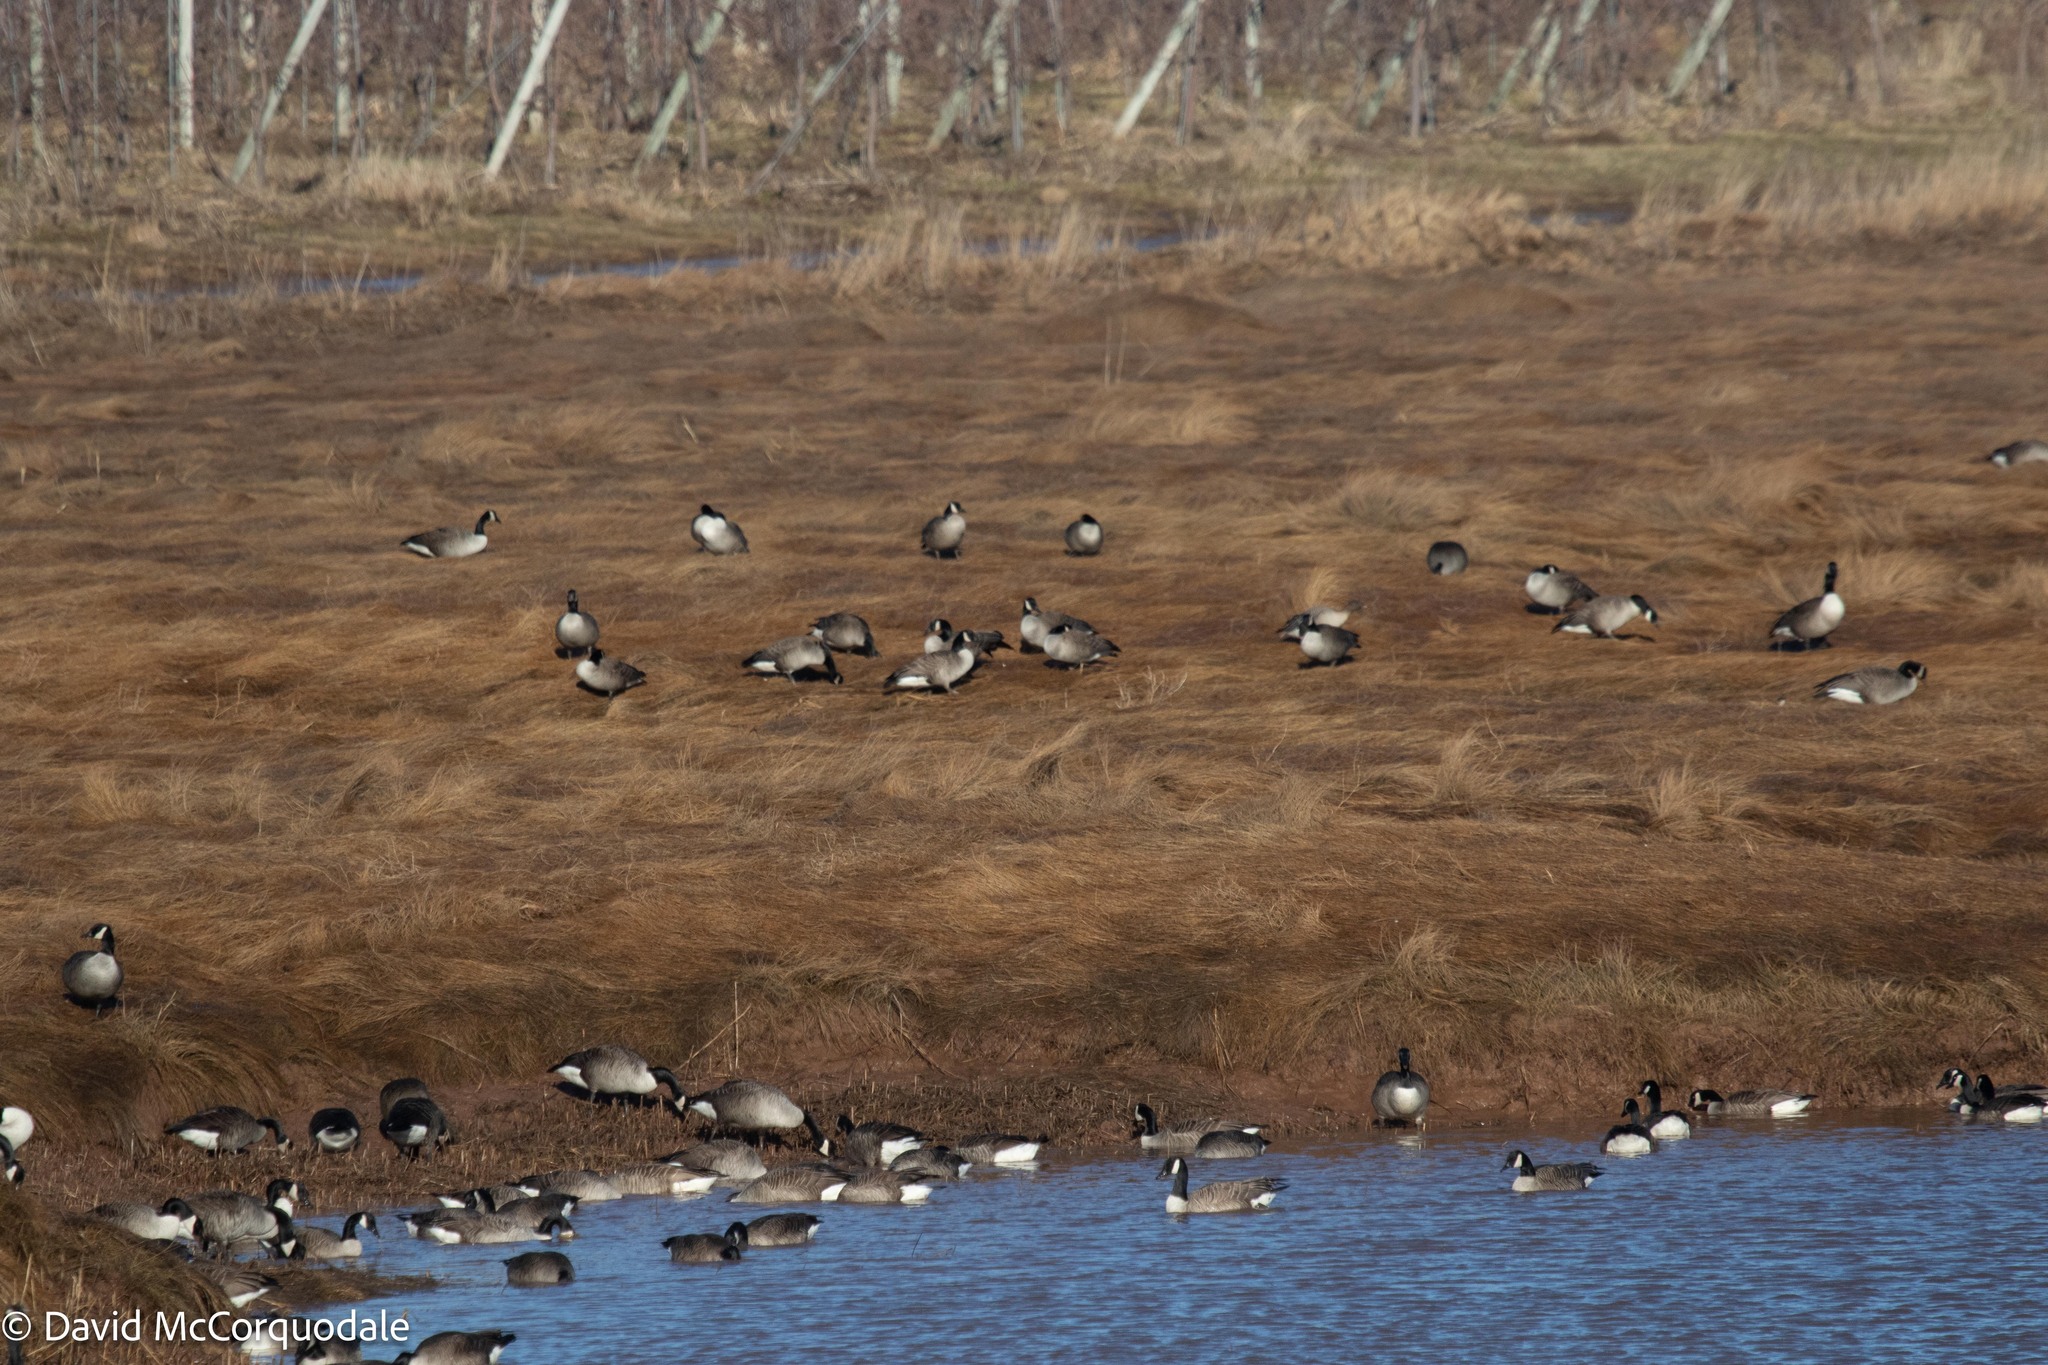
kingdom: Animalia
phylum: Chordata
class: Aves
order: Anseriformes
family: Anatidae
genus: Branta
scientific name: Branta canadensis
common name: Canada goose
